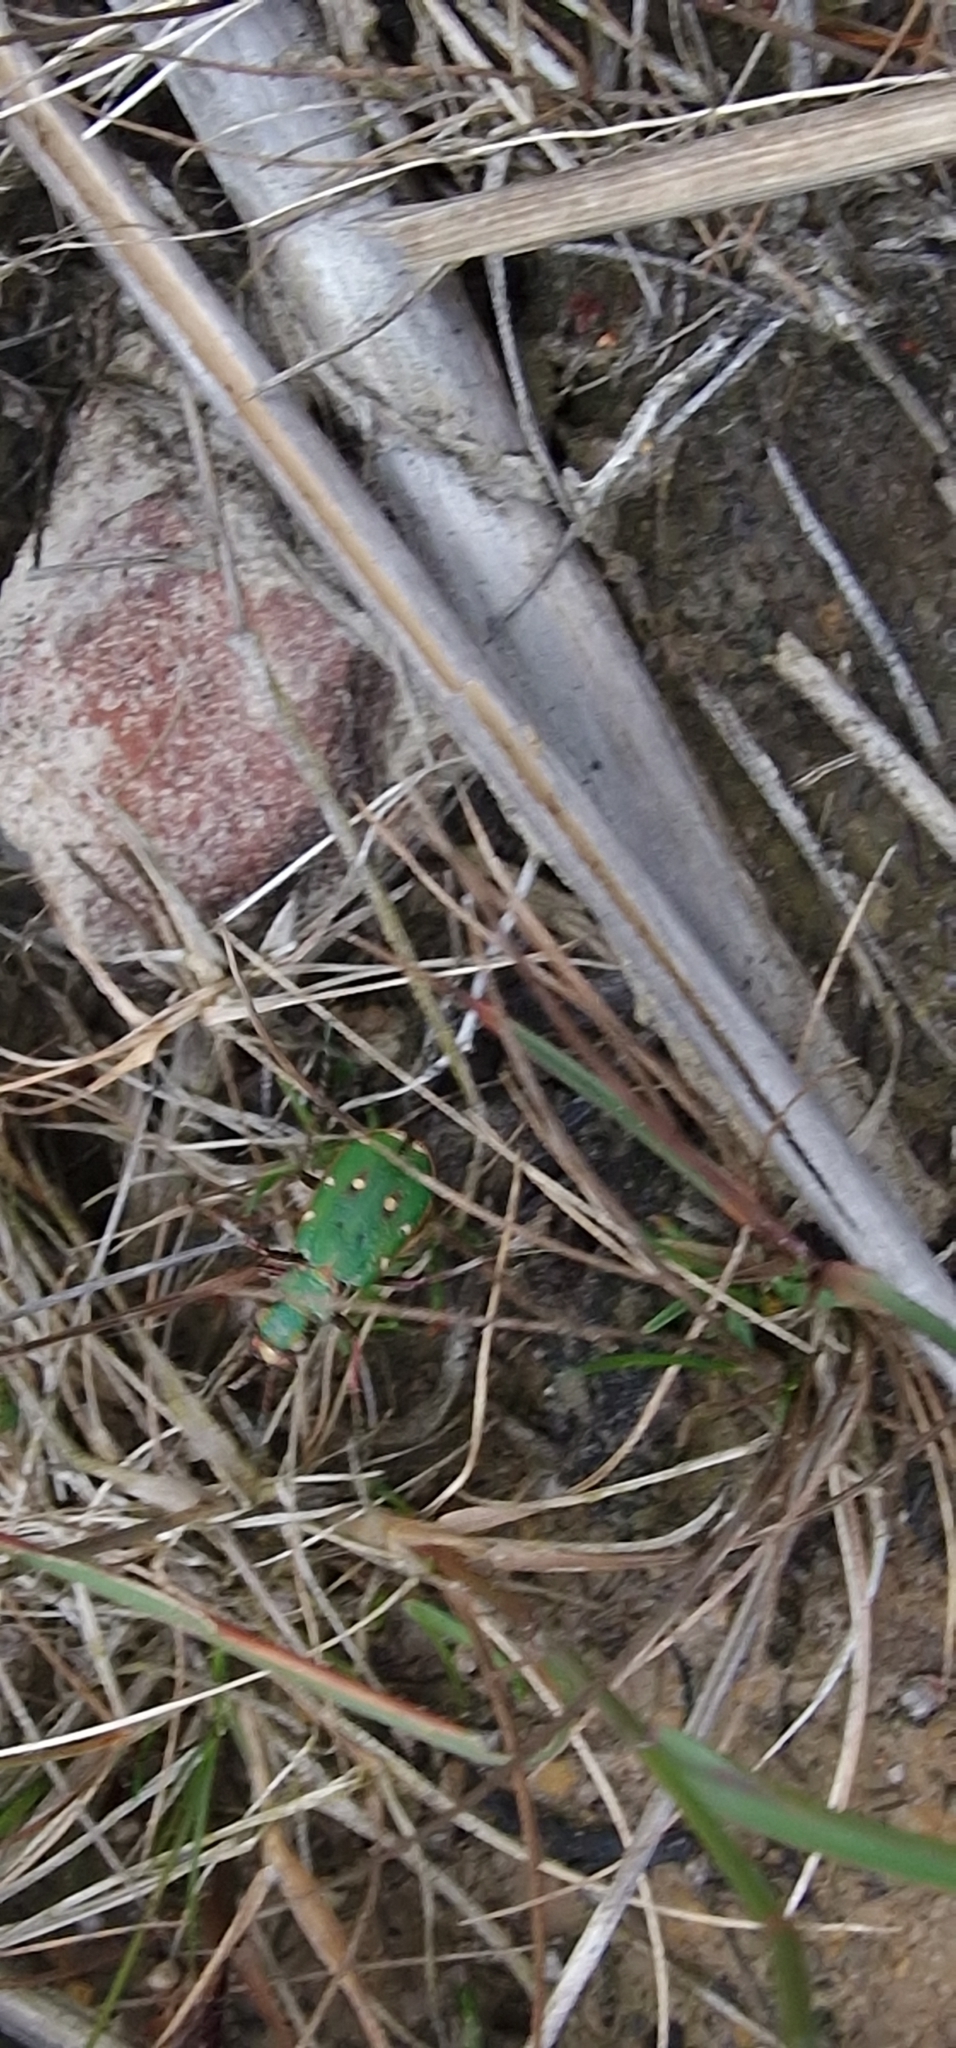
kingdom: Animalia
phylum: Arthropoda
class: Insecta
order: Coleoptera
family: Carabidae
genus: Cicindela
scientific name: Cicindela campestris
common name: Common tiger beetle
